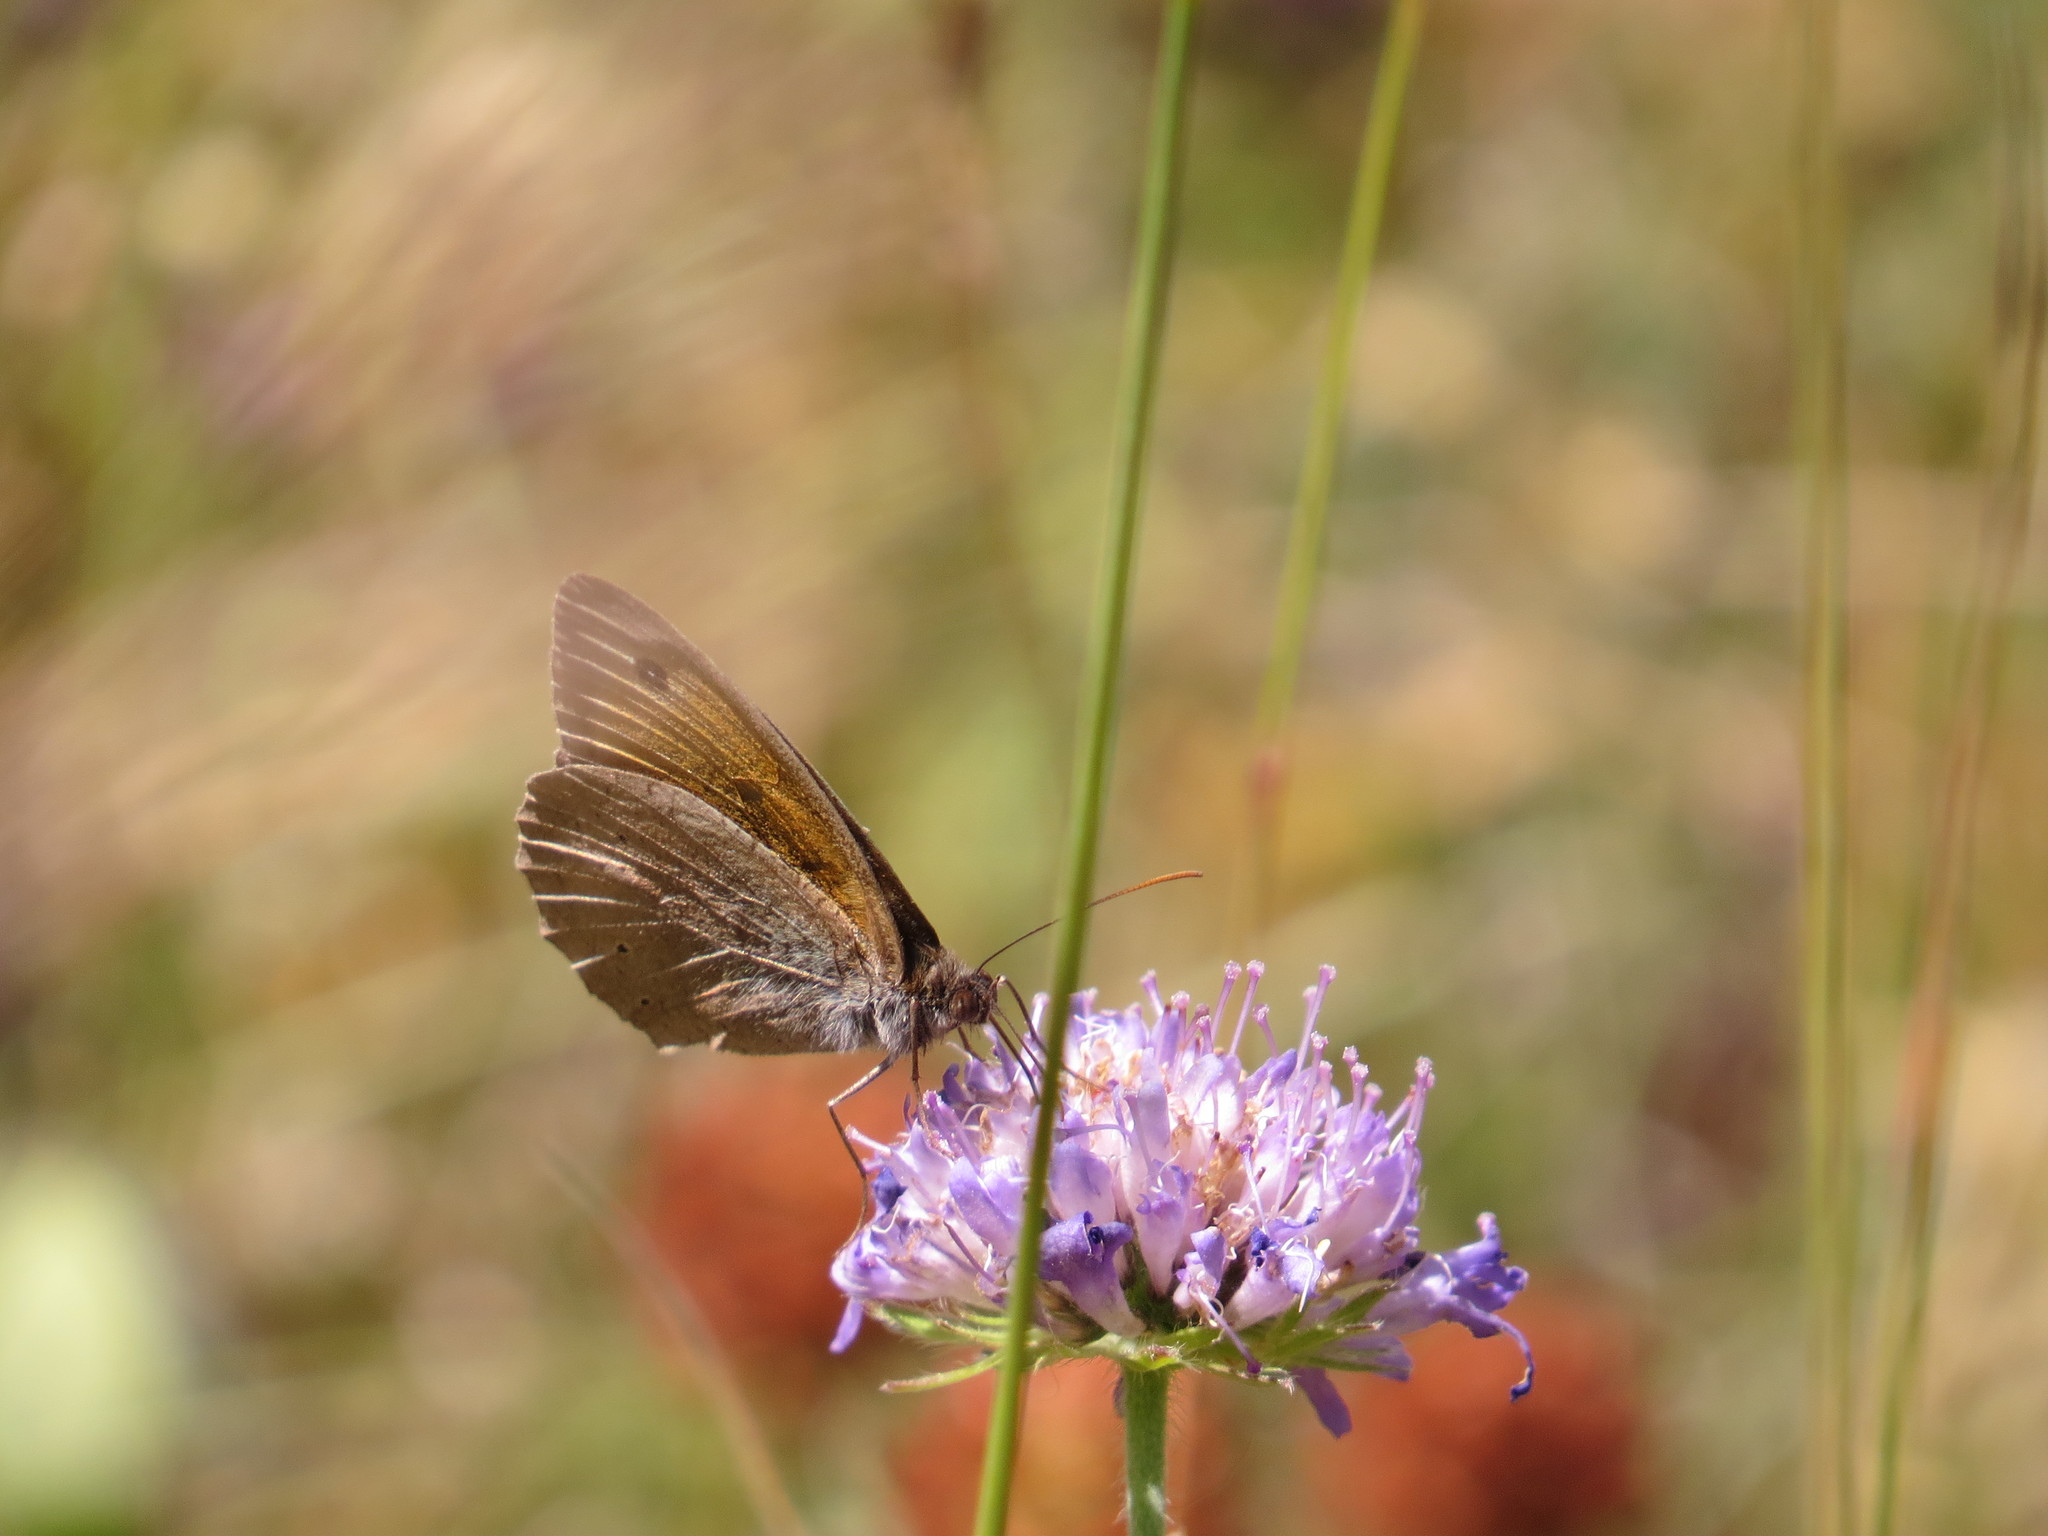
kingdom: Animalia
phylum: Arthropoda
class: Insecta
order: Lepidoptera
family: Nymphalidae
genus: Maniola
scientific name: Maniola jurtina
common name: Meadow brown
